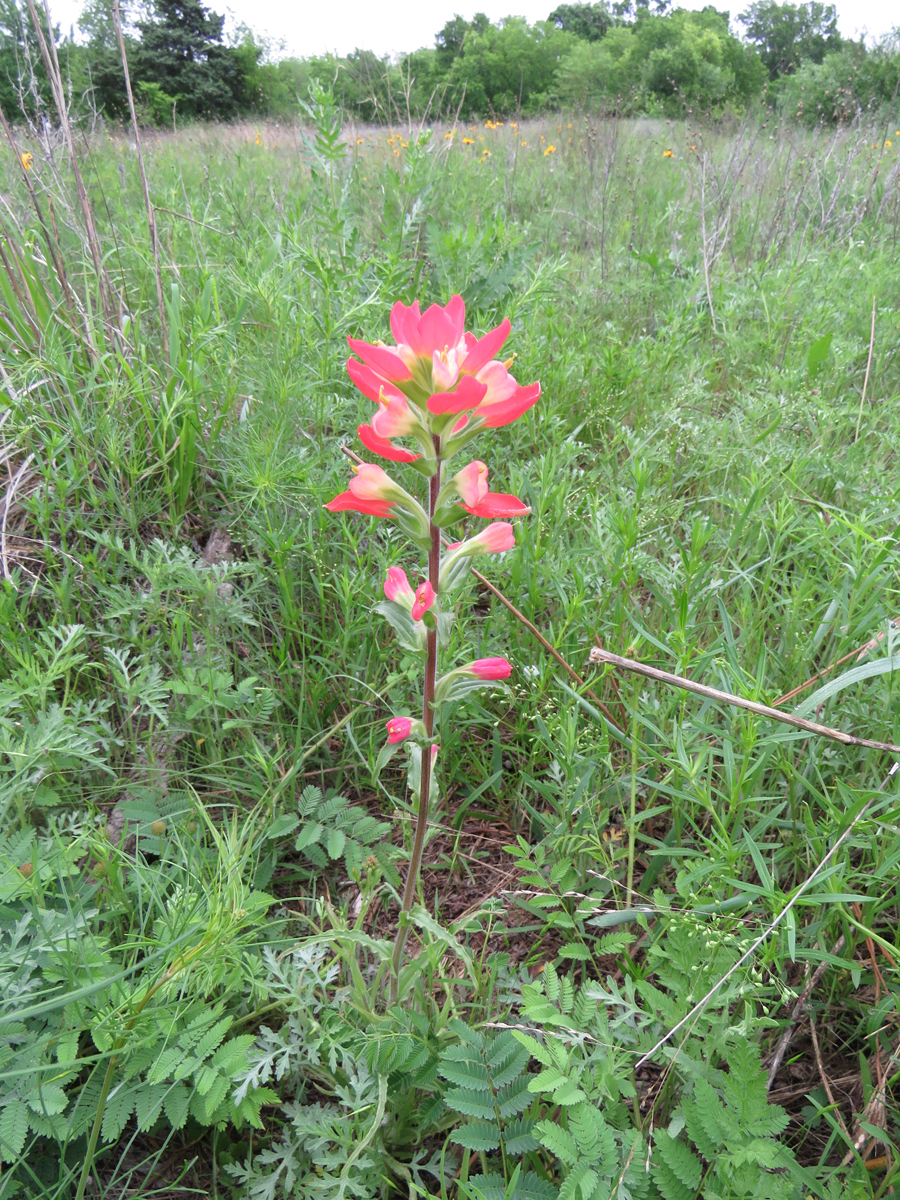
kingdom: Plantae
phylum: Tracheophyta
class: Magnoliopsida
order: Lamiales
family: Orobanchaceae
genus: Castilleja
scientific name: Castilleja indivisa
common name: Texas paintbrush
